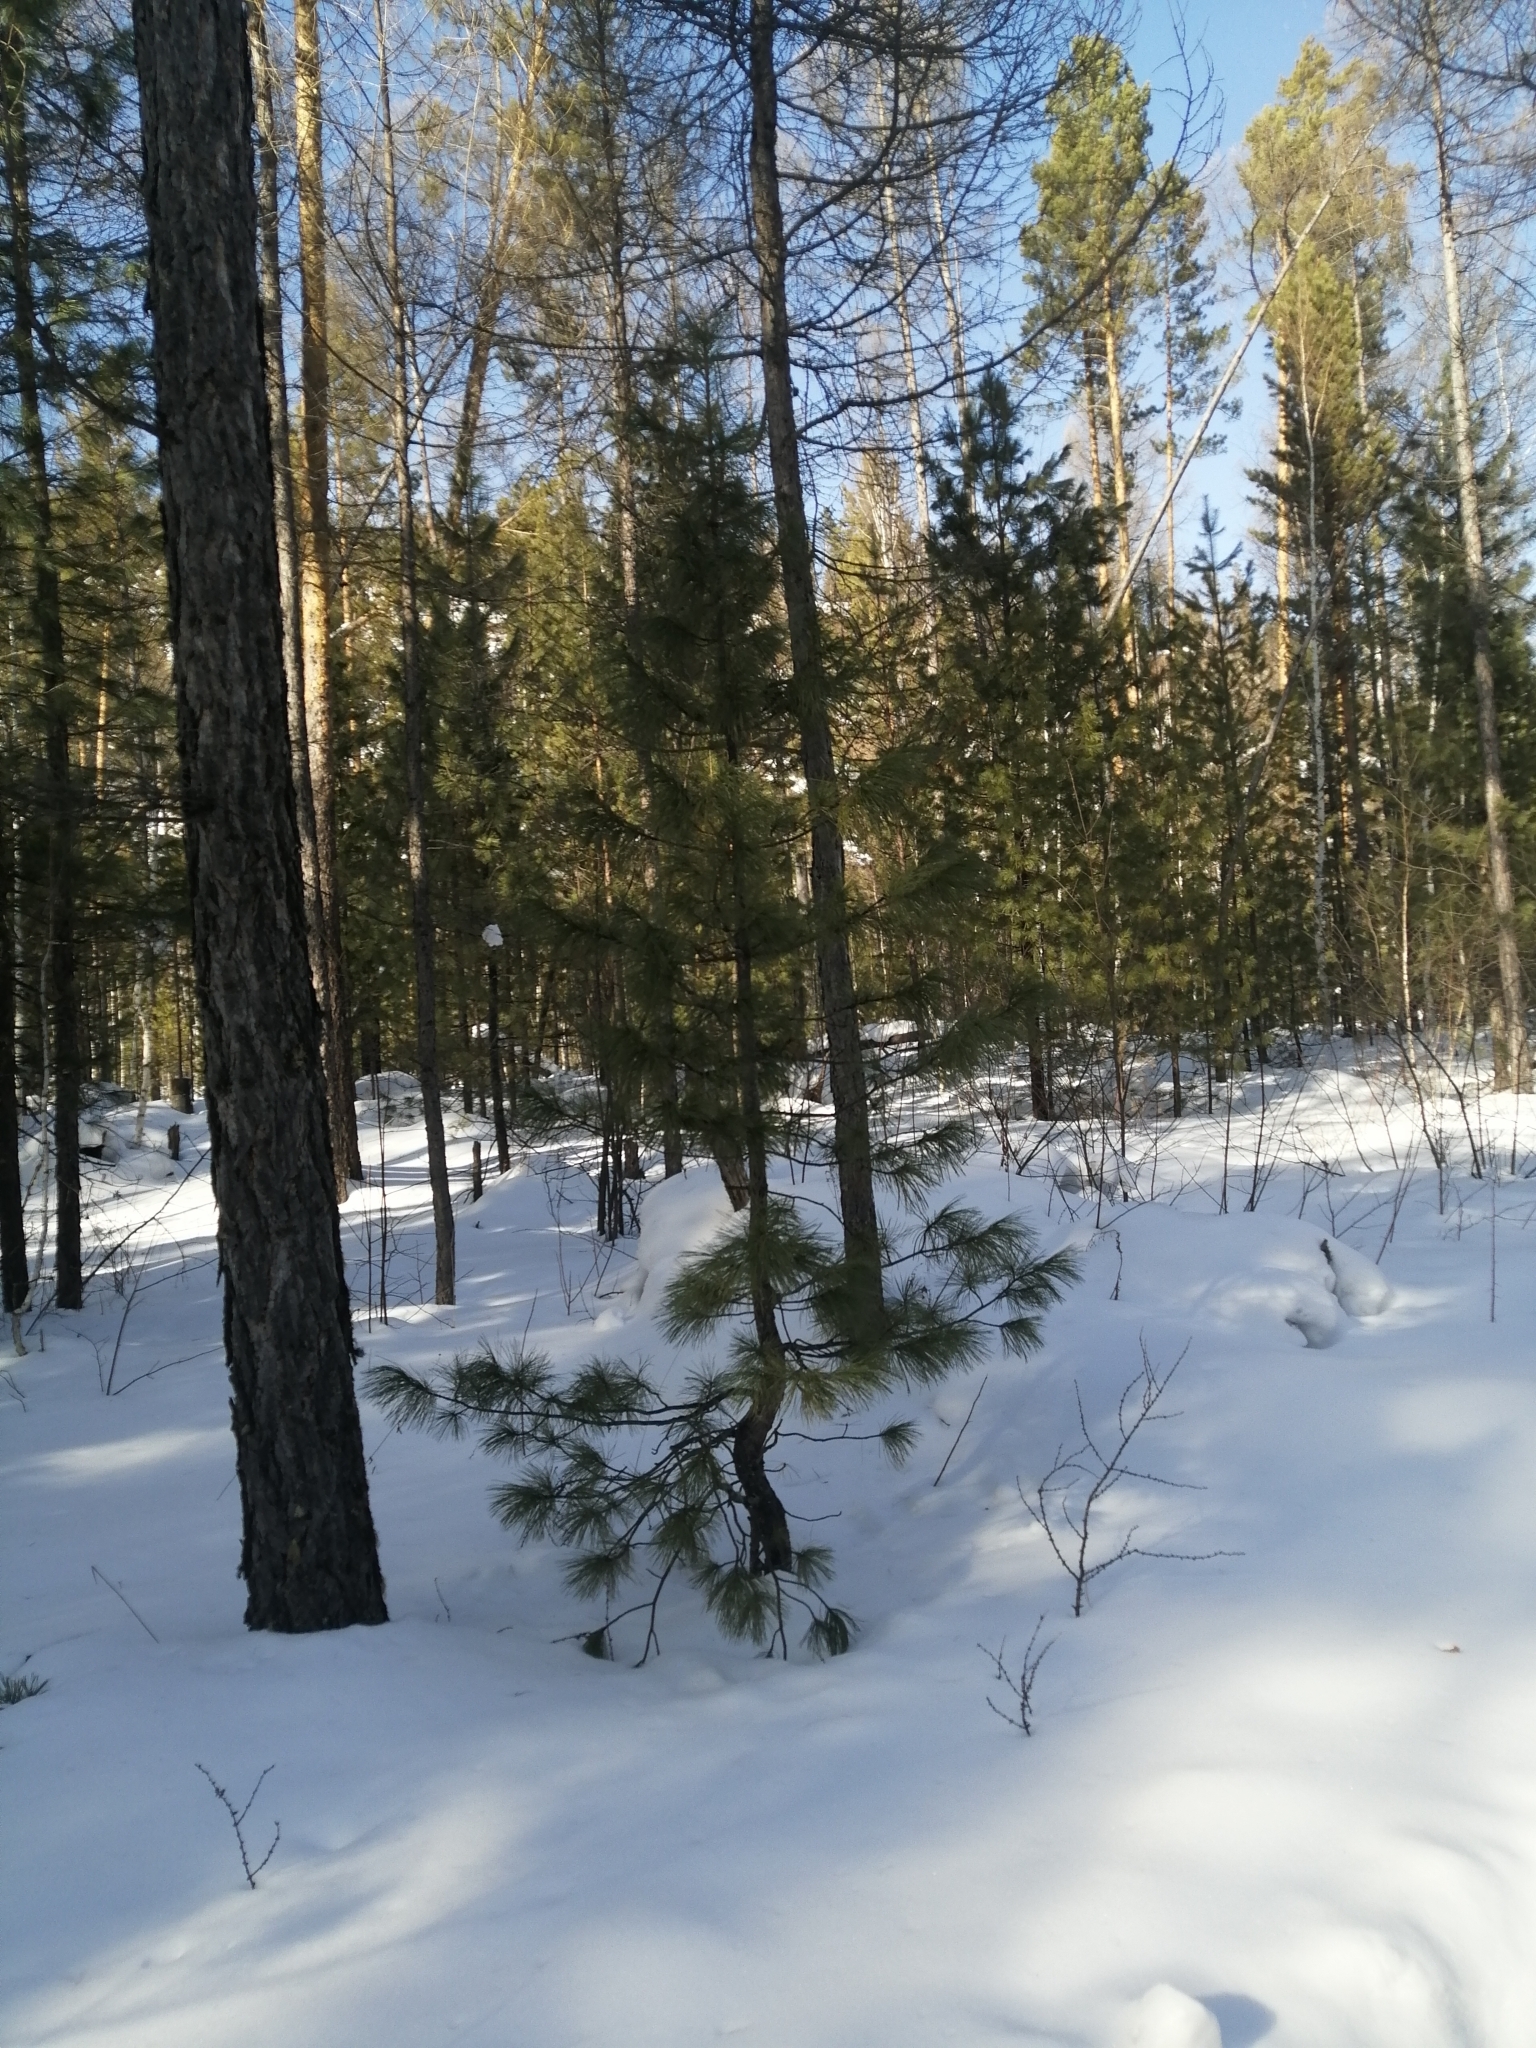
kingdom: Plantae
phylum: Tracheophyta
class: Pinopsida
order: Pinales
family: Pinaceae
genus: Pinus
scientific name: Pinus sibirica
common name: Siberian pine
